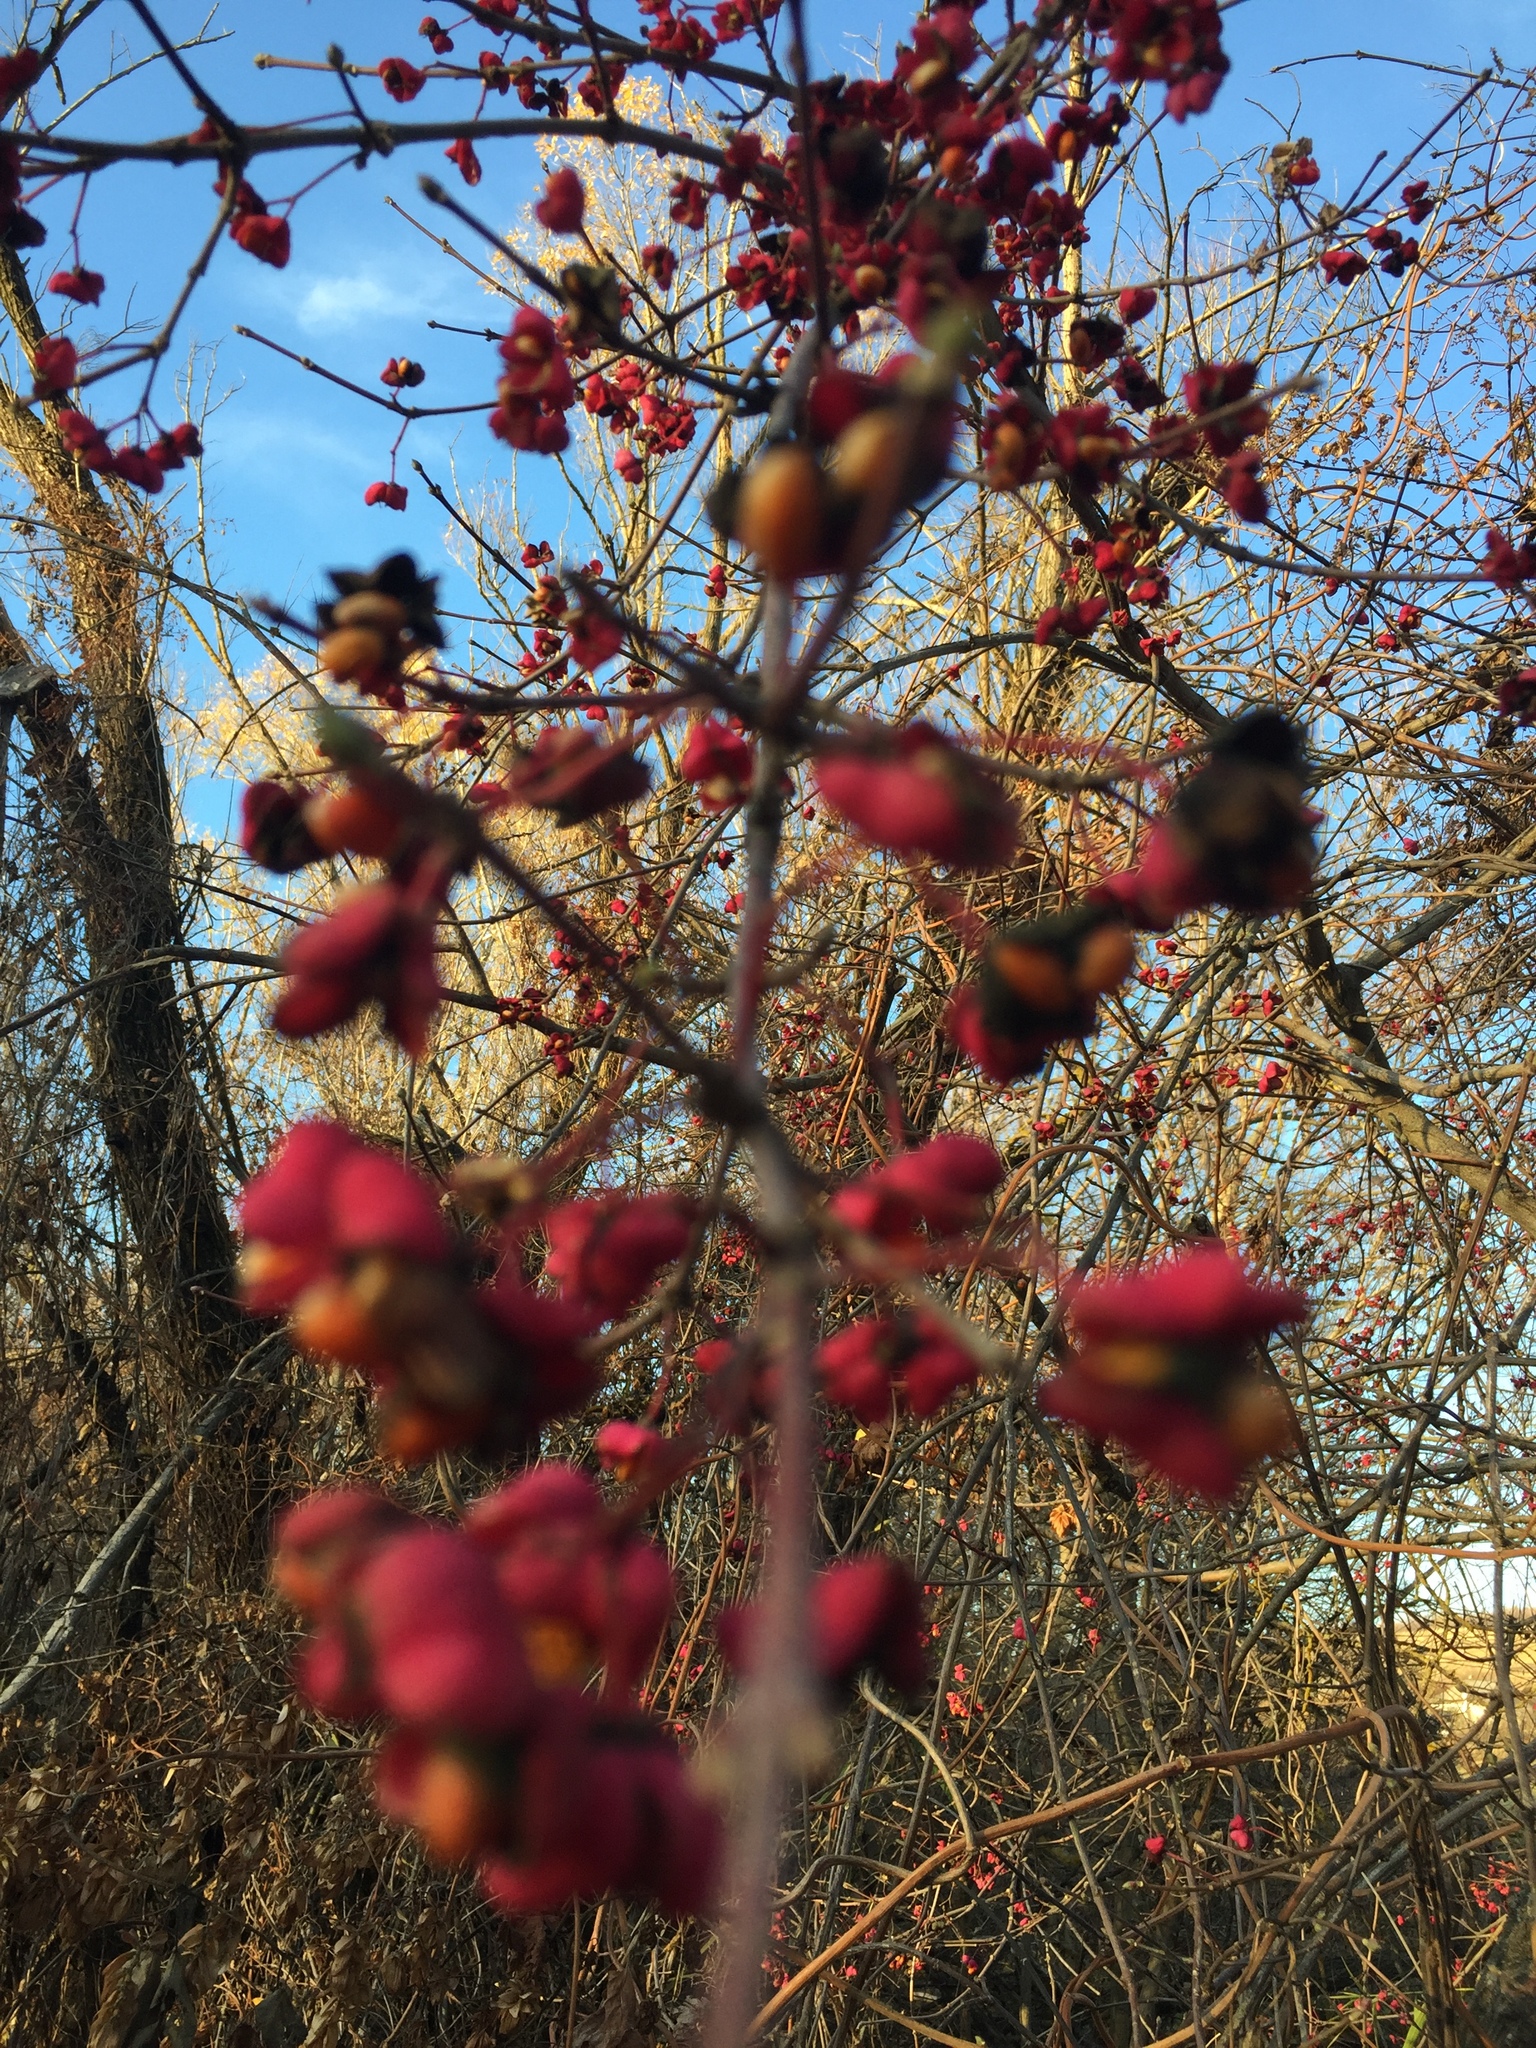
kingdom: Plantae
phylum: Tracheophyta
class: Magnoliopsida
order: Celastrales
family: Celastraceae
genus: Euonymus
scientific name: Euonymus europaeus
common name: Spindle
